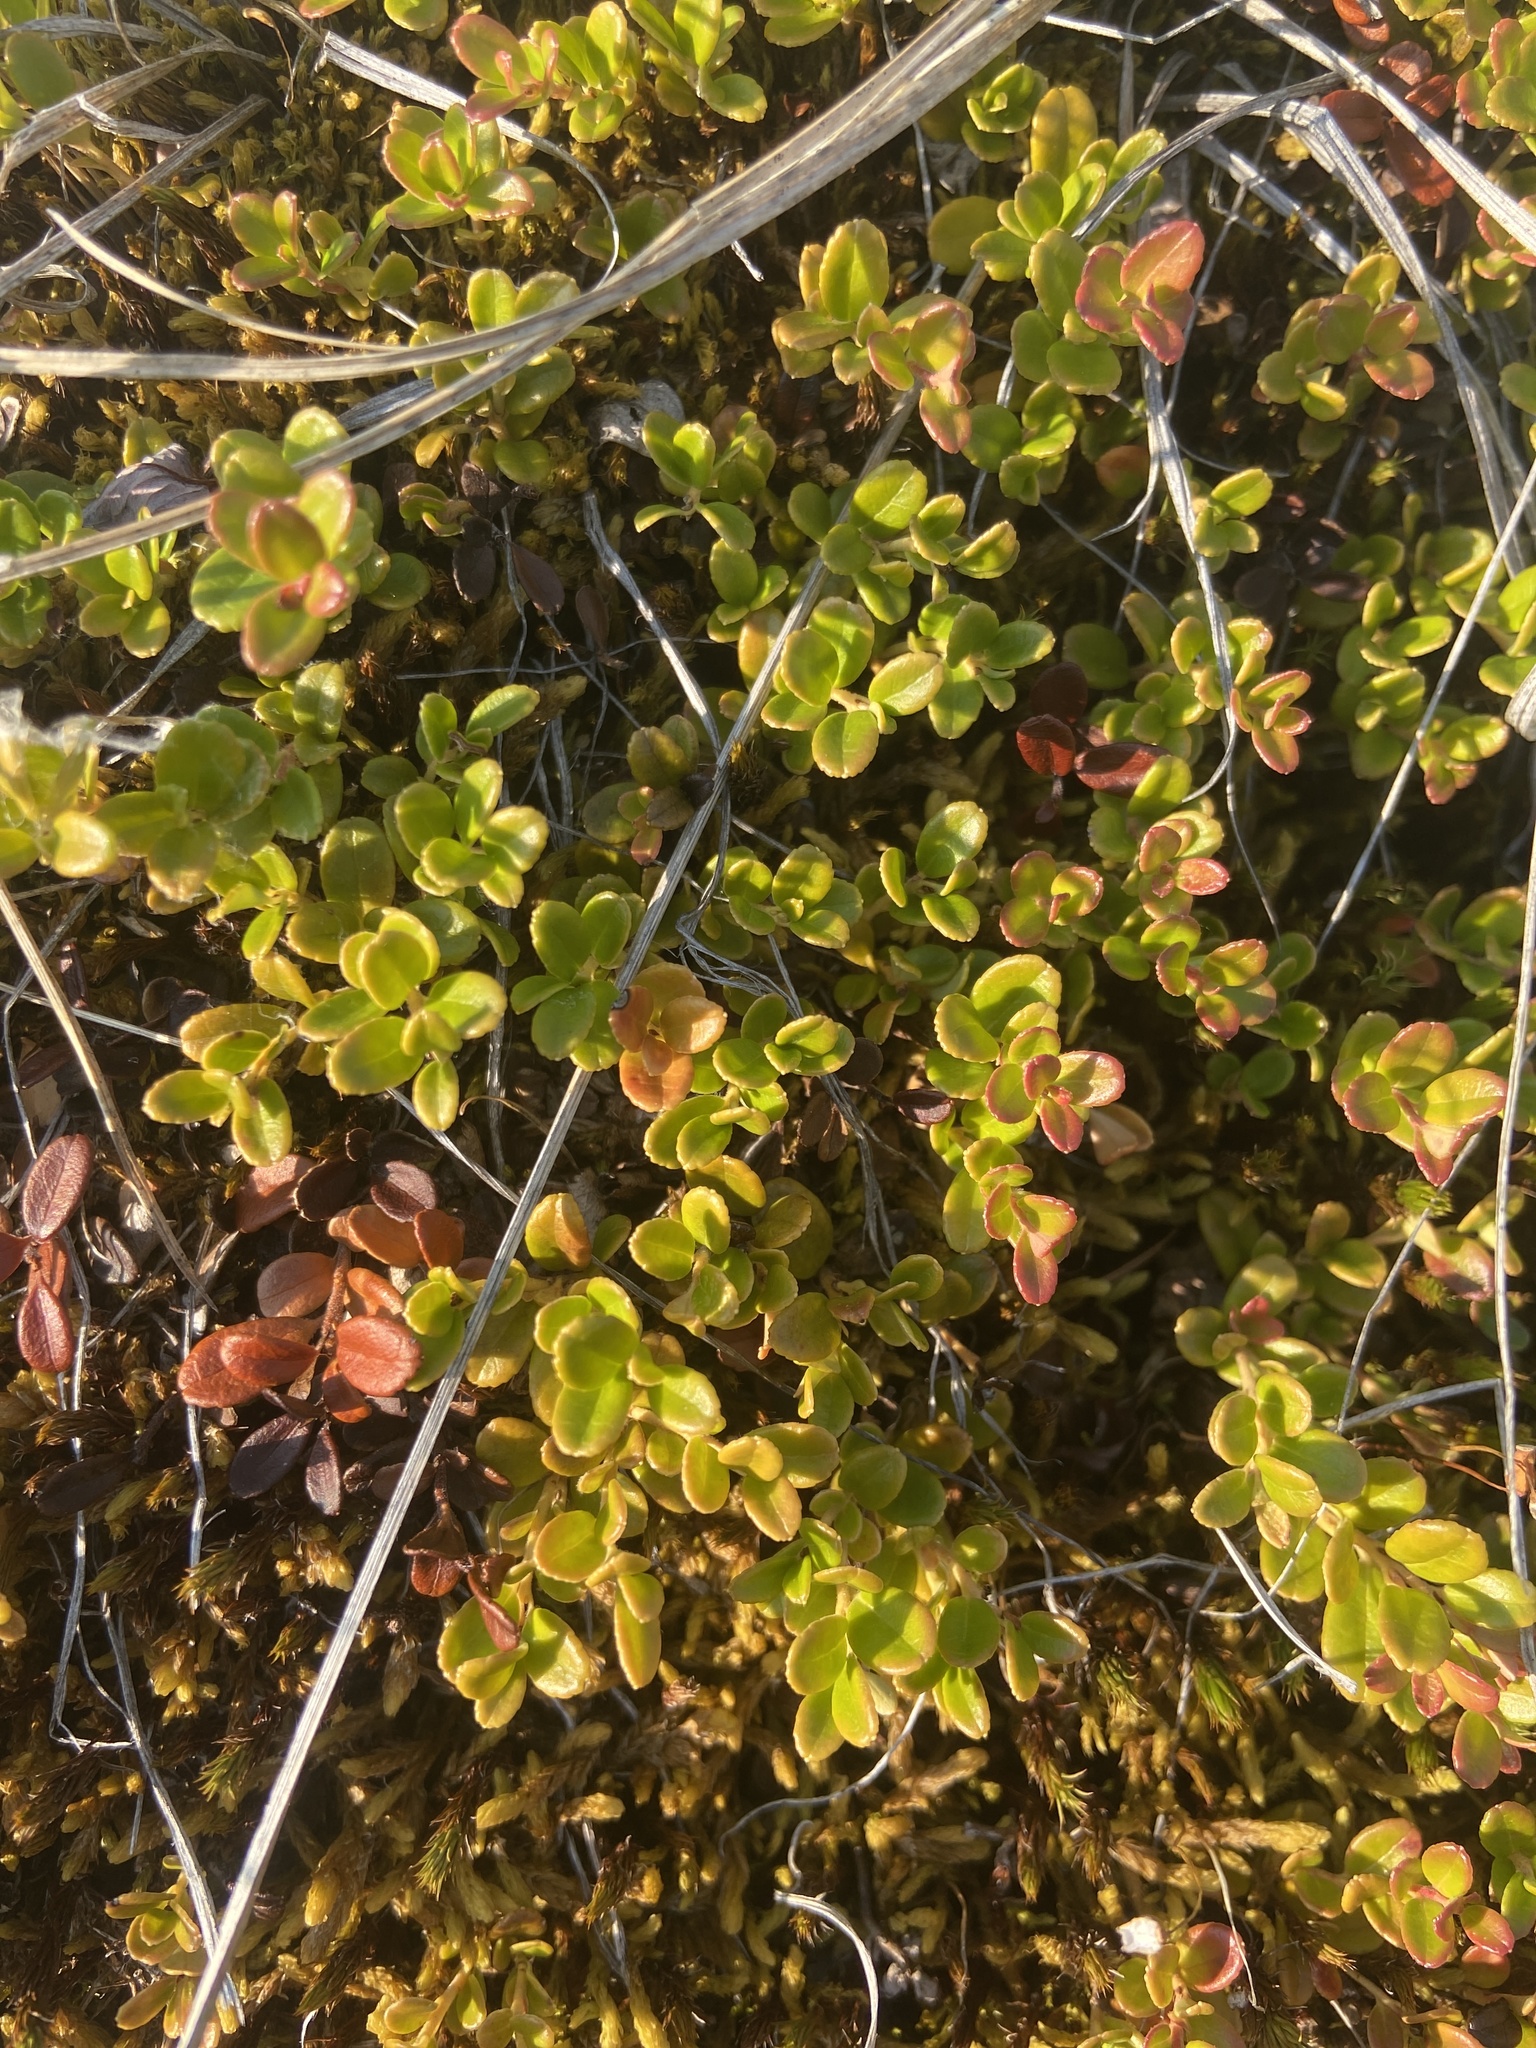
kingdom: Plantae
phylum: Tracheophyta
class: Magnoliopsida
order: Ericales
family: Ericaceae
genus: Vaccinium
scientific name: Vaccinium vitis-idaea
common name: Cowberry
